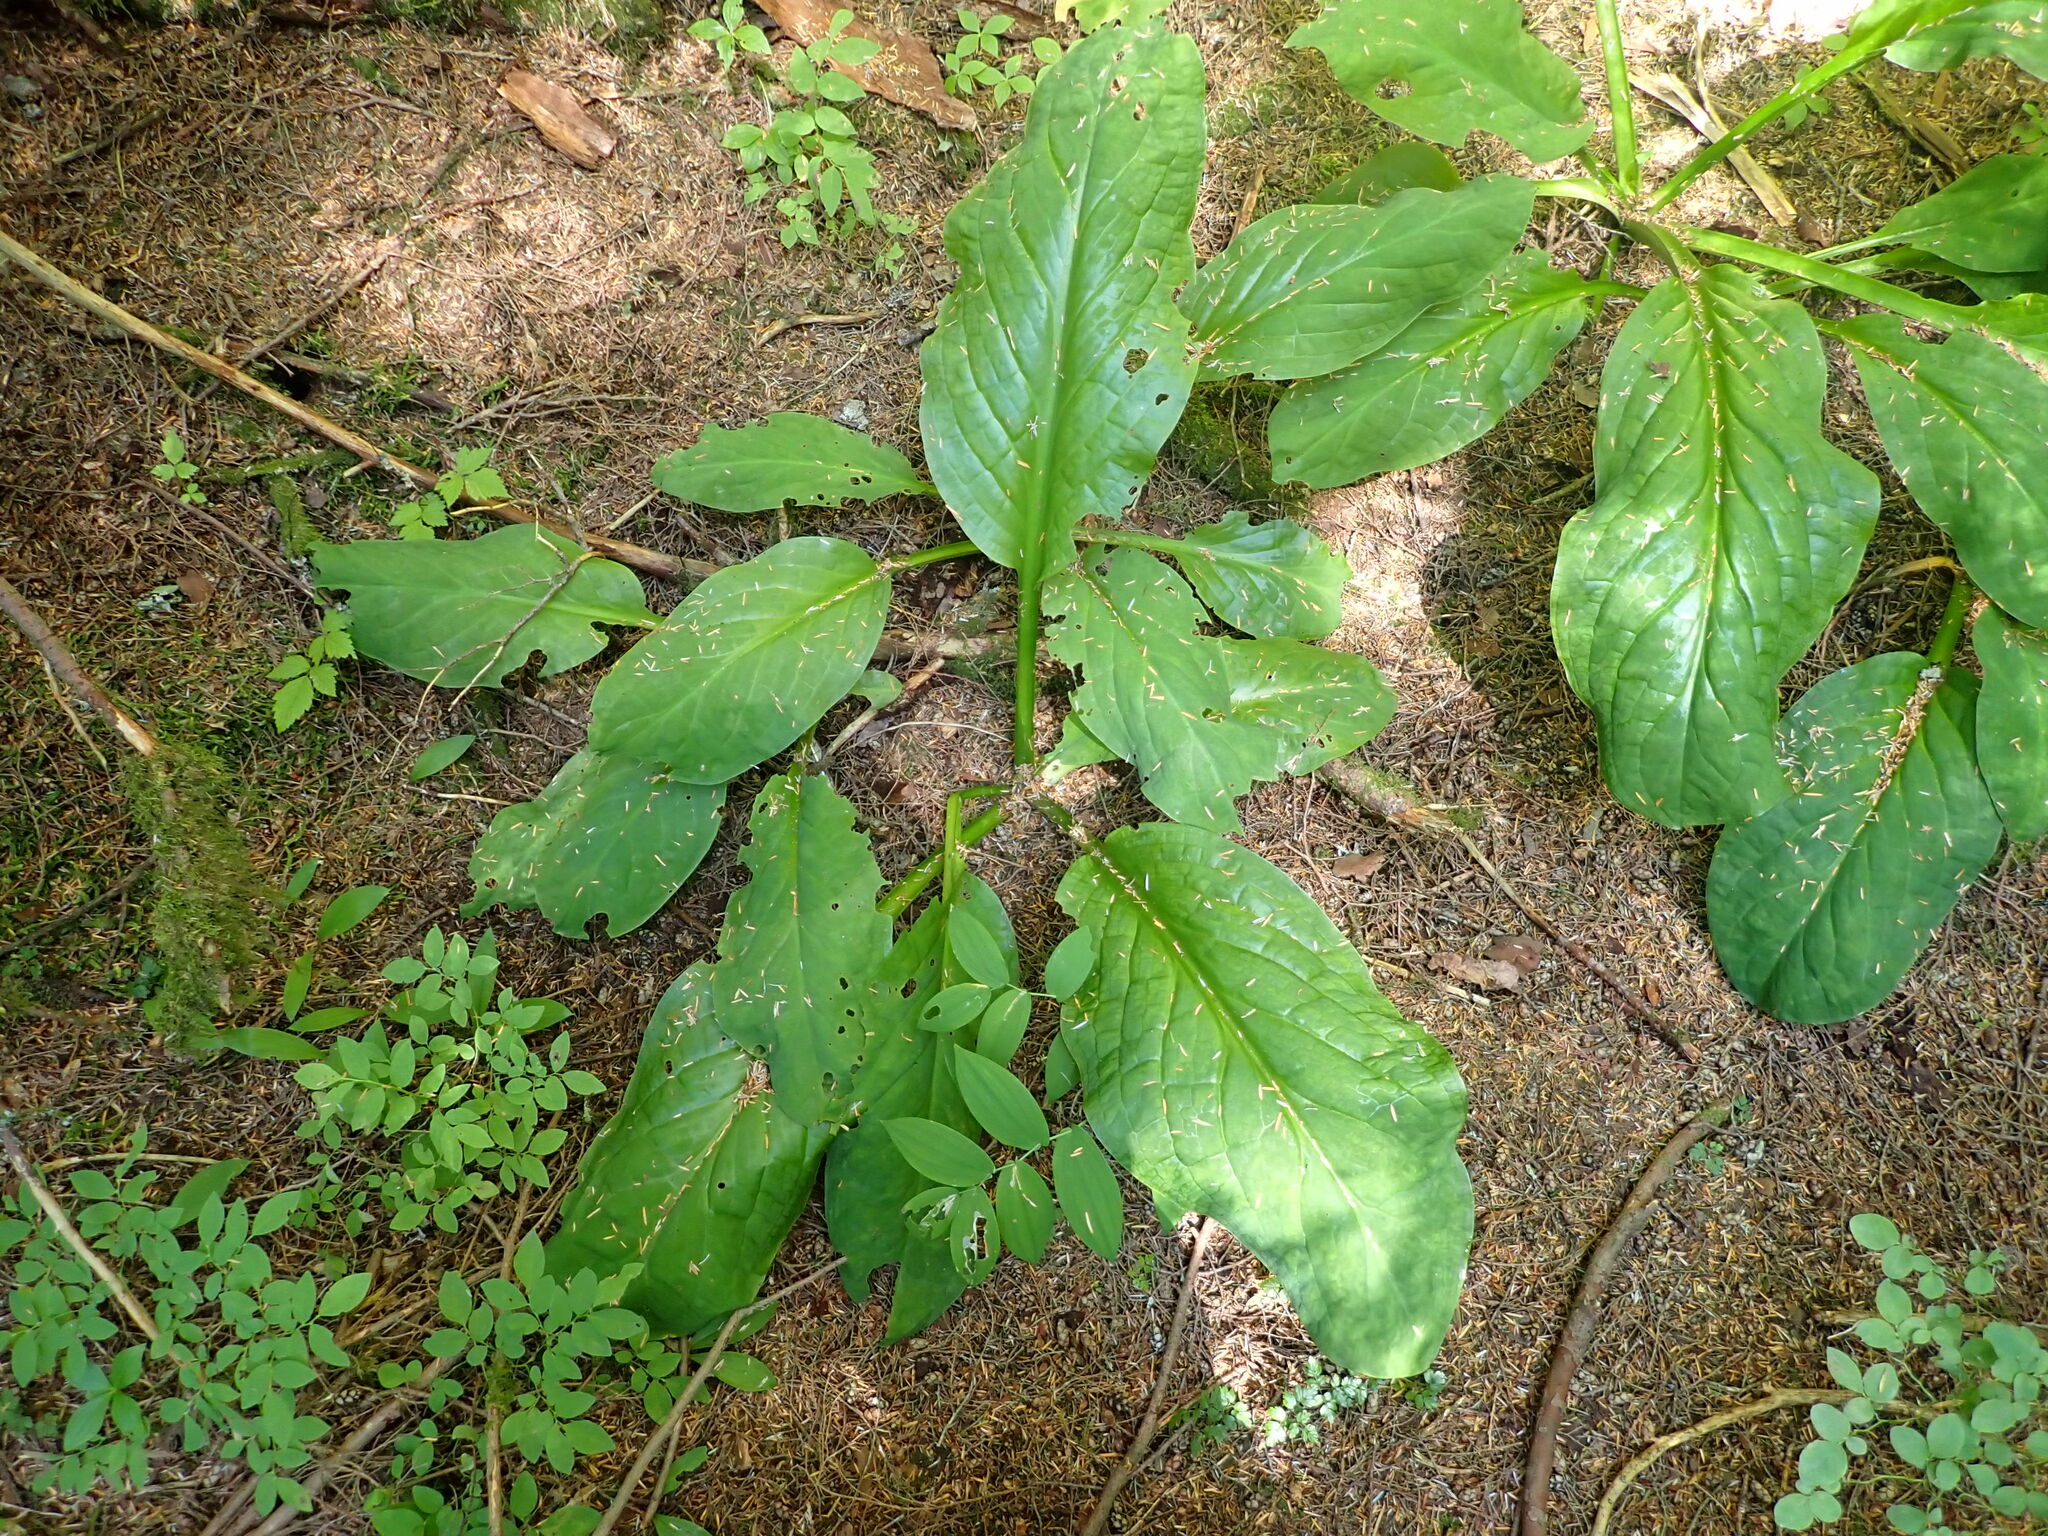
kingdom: Plantae
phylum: Tracheophyta
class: Liliopsida
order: Alismatales
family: Araceae
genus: Lysichiton
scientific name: Lysichiton americanus
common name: American skunk cabbage
